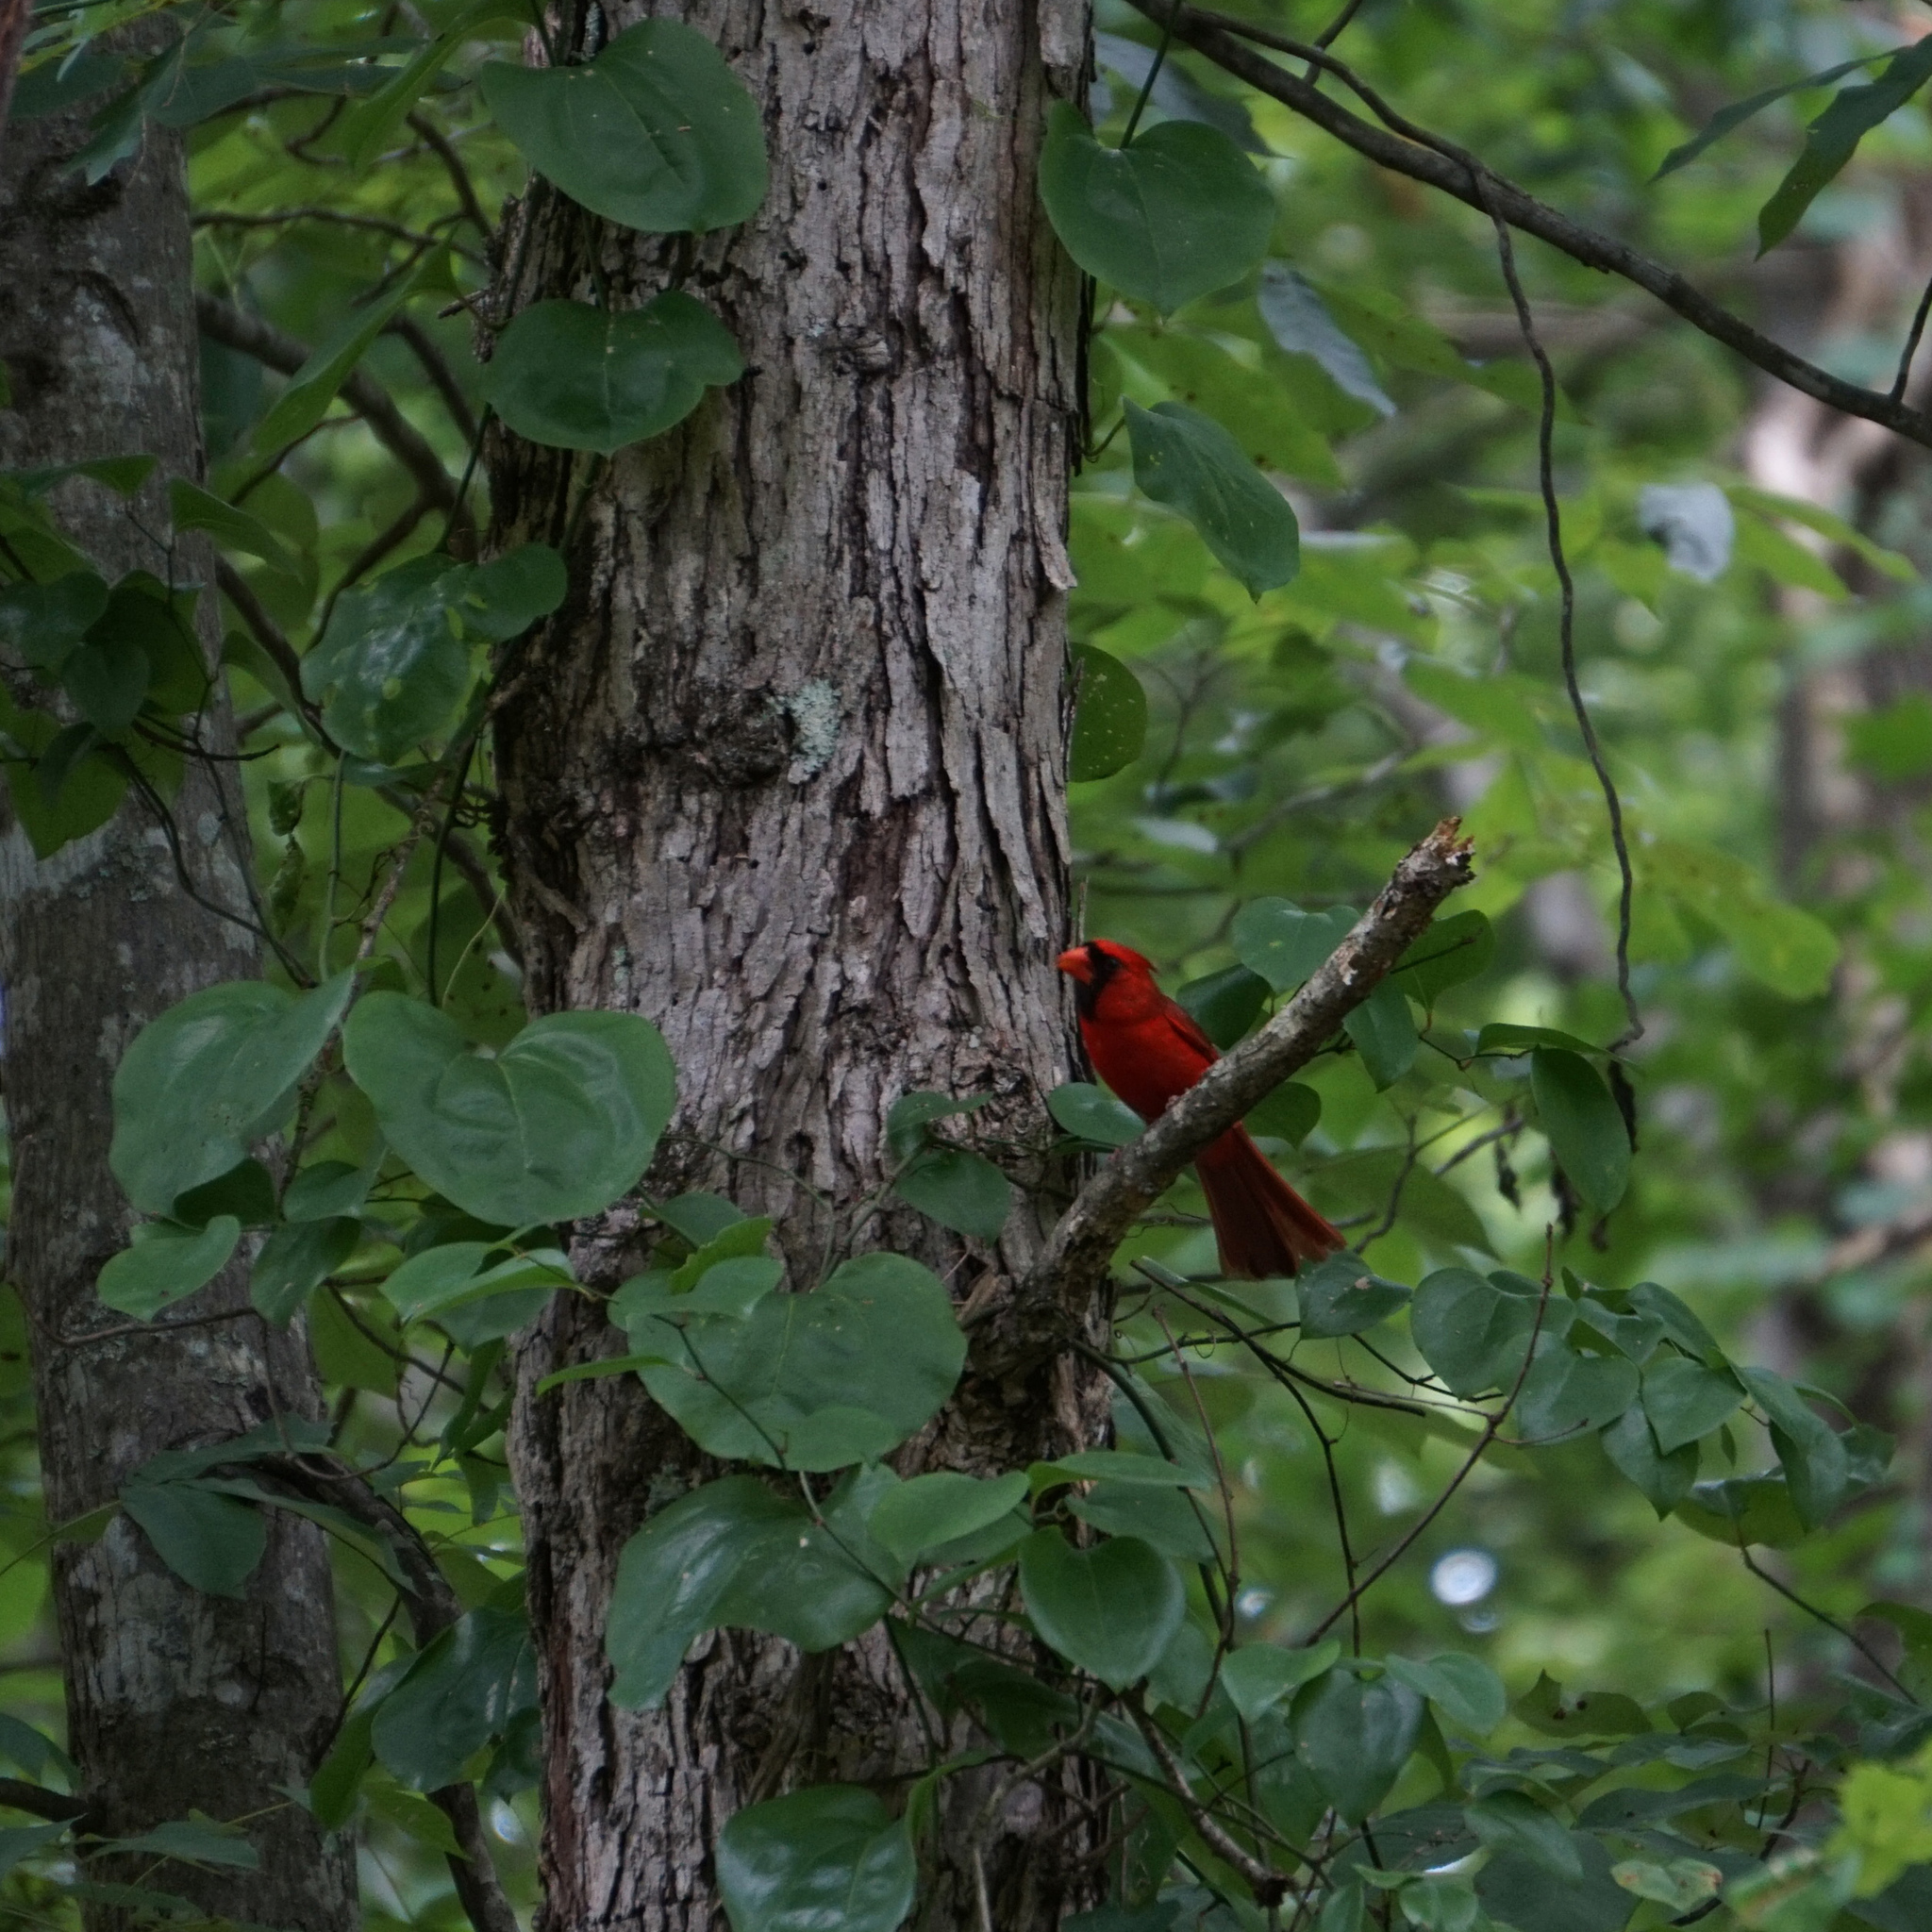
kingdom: Animalia
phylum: Chordata
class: Aves
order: Passeriformes
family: Cardinalidae
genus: Cardinalis
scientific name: Cardinalis cardinalis
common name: Northern cardinal
